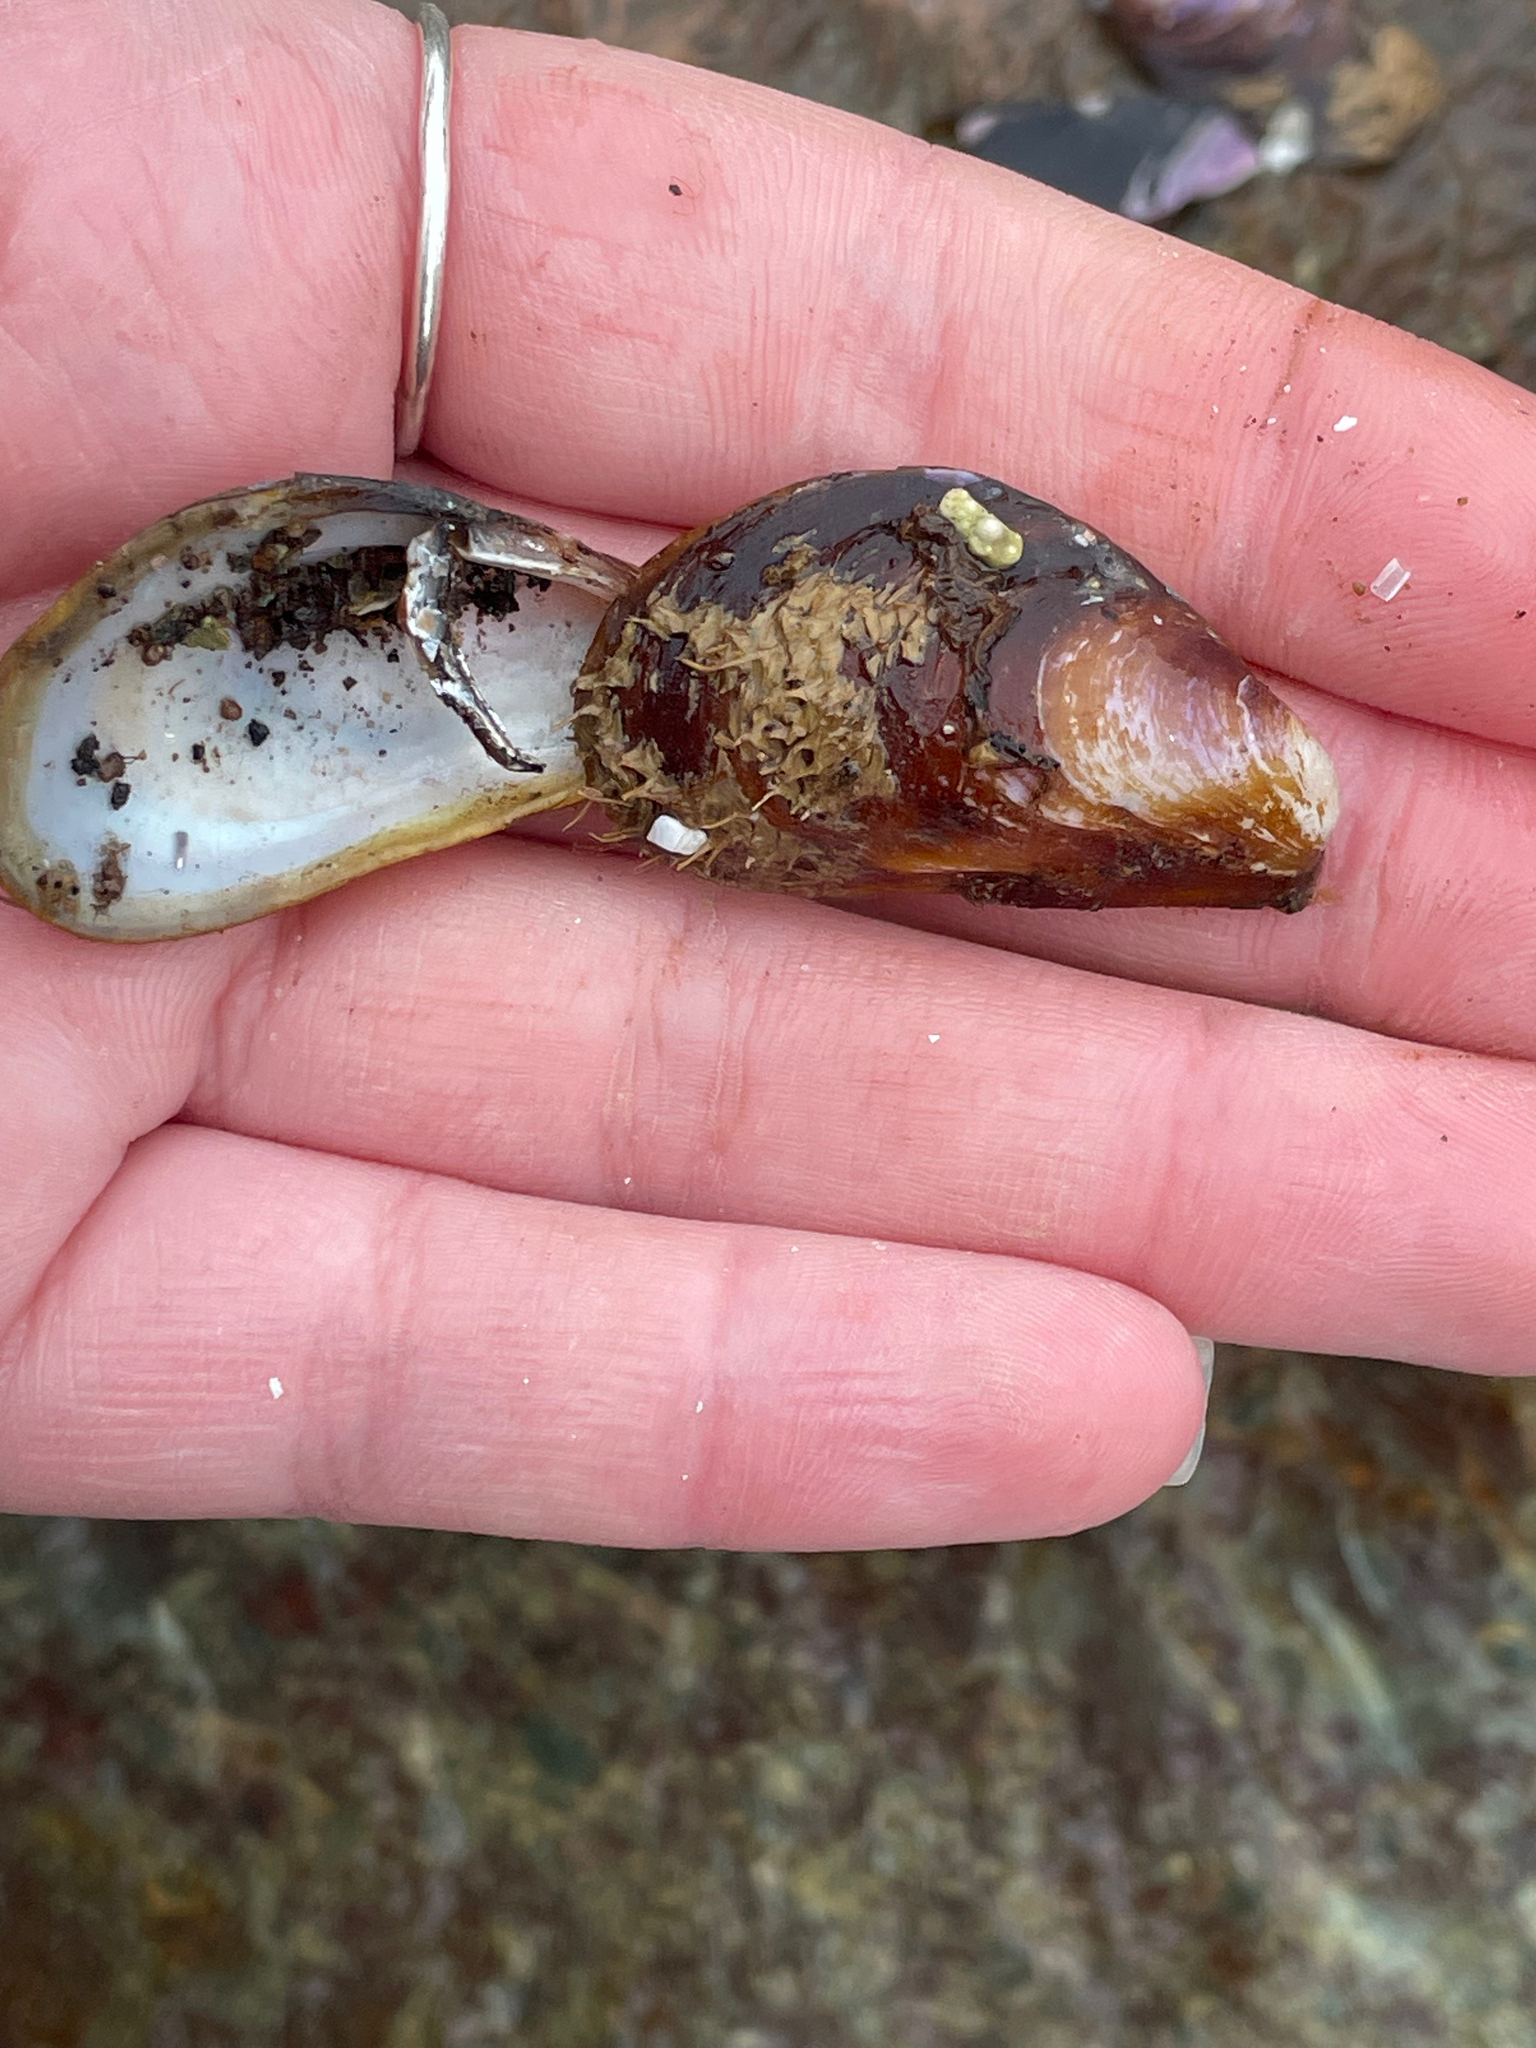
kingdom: Animalia
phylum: Mollusca
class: Bivalvia
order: Mytilida
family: Mytilidae
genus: Modiolus
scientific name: Modiolus modiolus
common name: Horse-mussel
